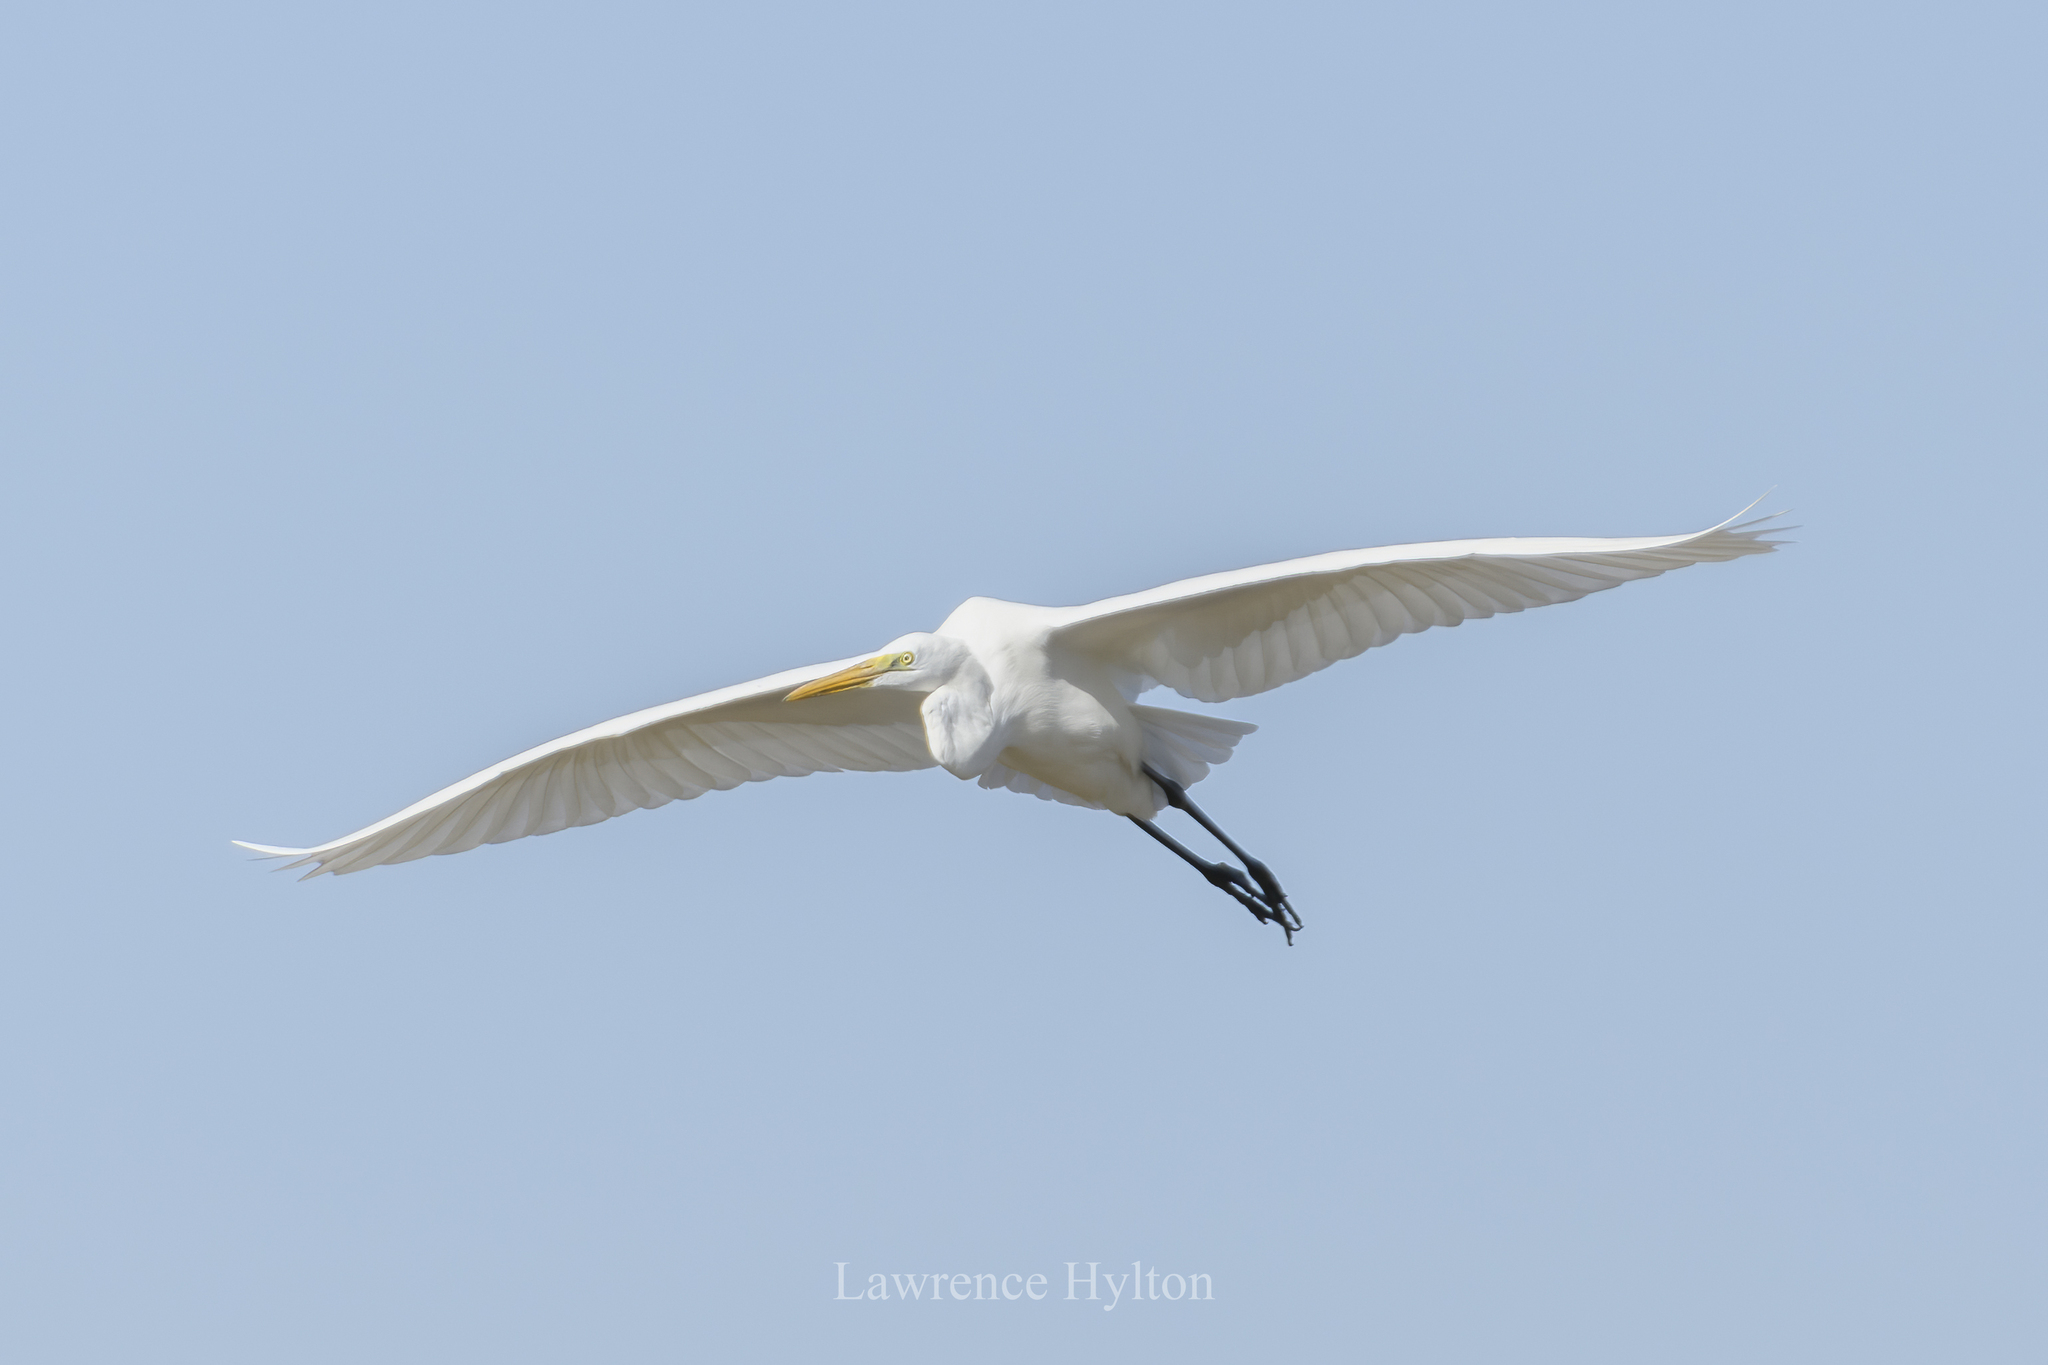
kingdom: Animalia
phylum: Chordata
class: Aves
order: Pelecaniformes
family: Ardeidae
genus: Ardea
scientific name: Ardea alba
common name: Great egret
